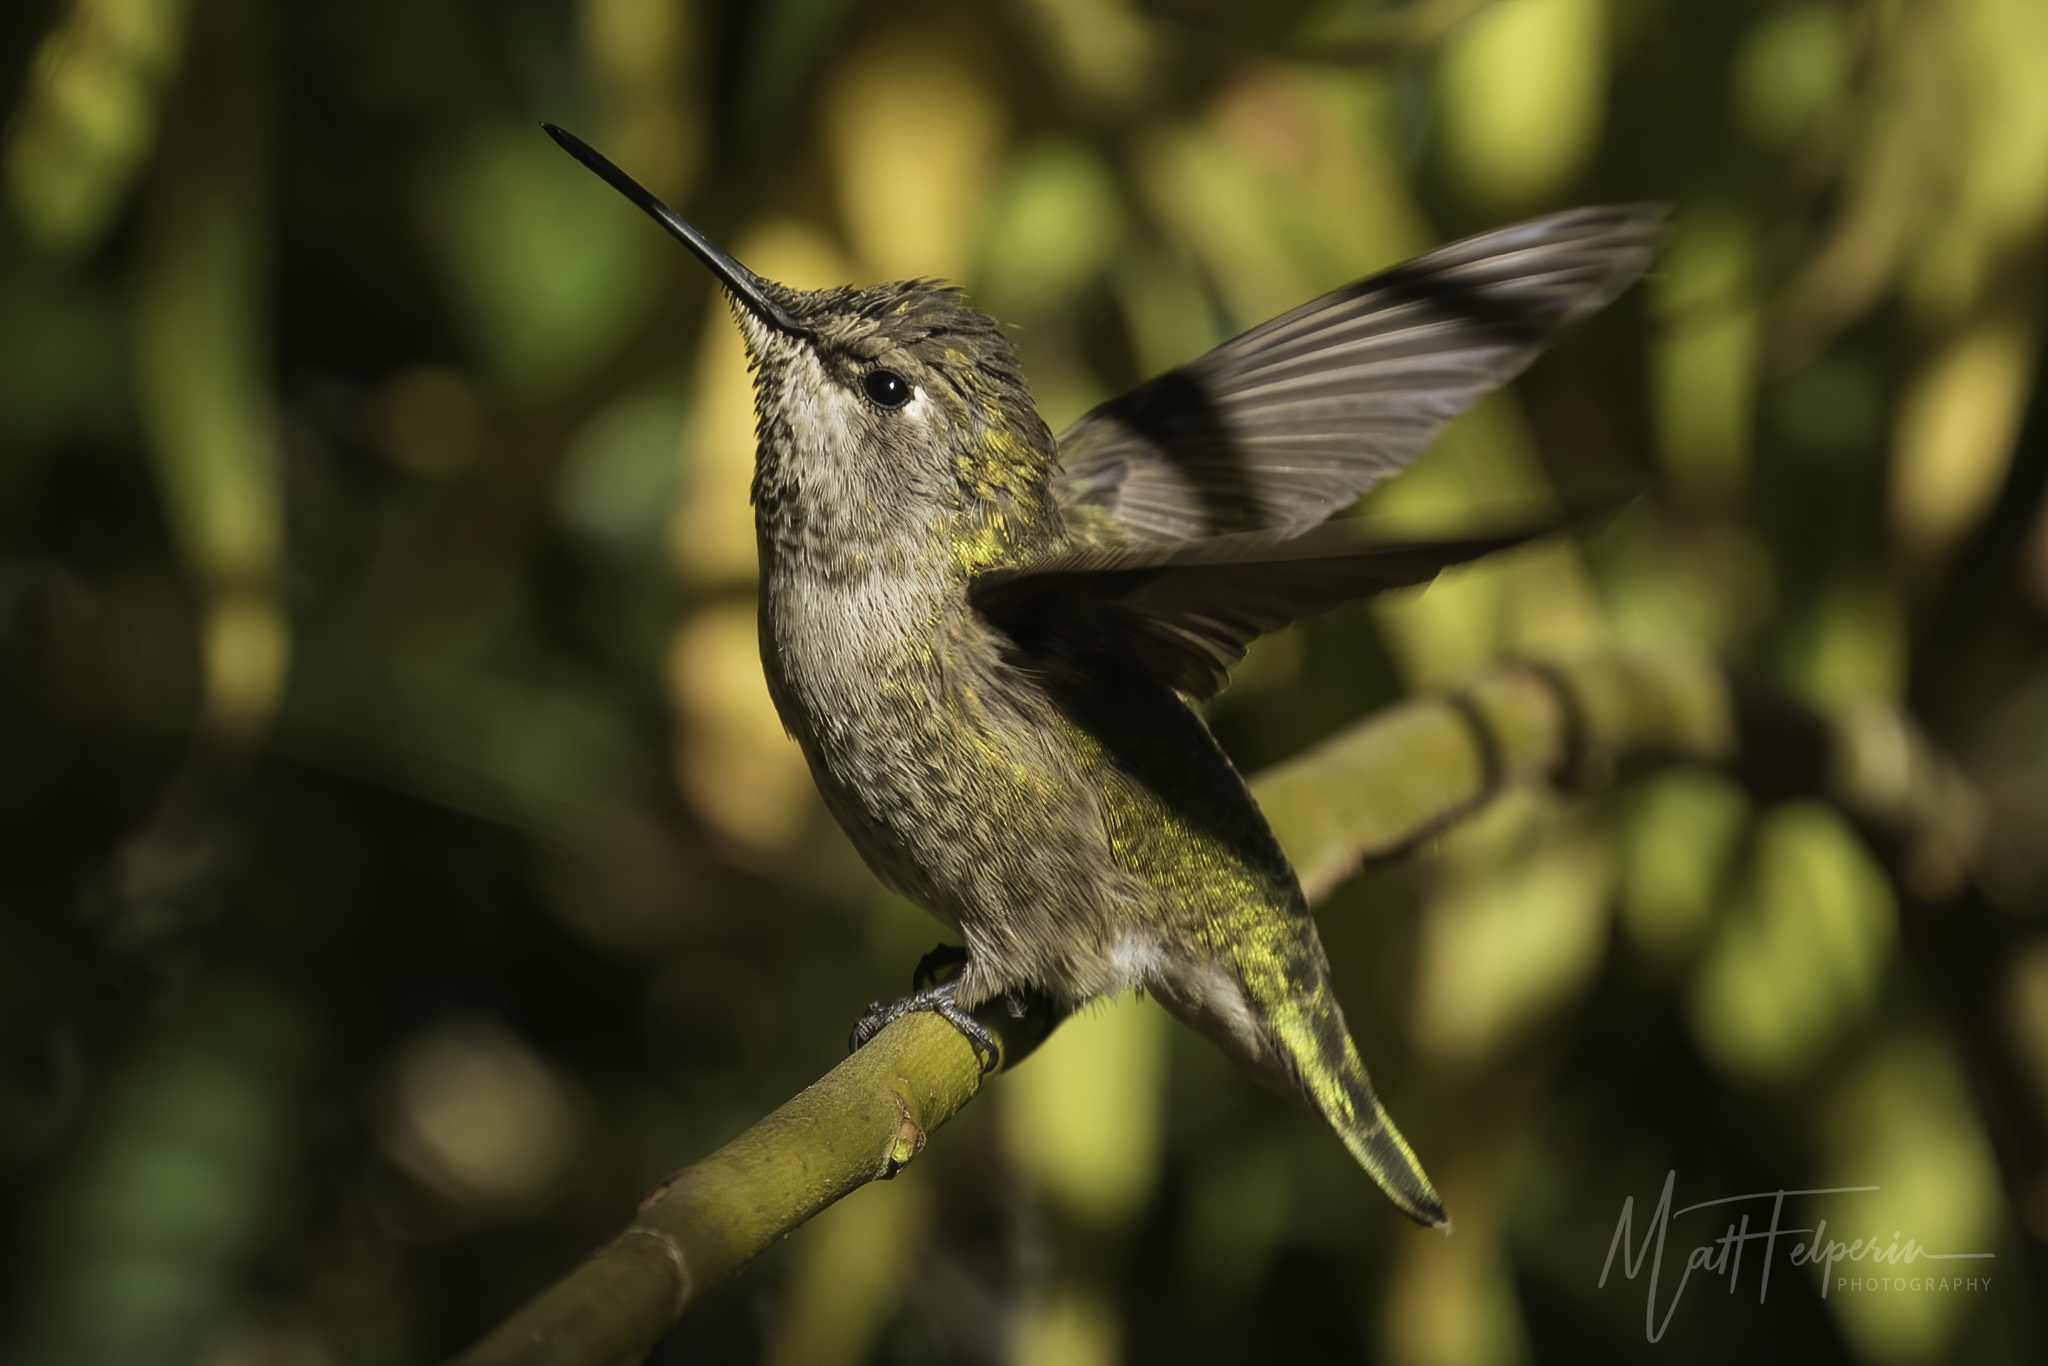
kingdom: Animalia
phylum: Chordata
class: Aves
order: Apodiformes
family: Trochilidae
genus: Calypte
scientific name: Calypte anna
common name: Anna's hummingbird
